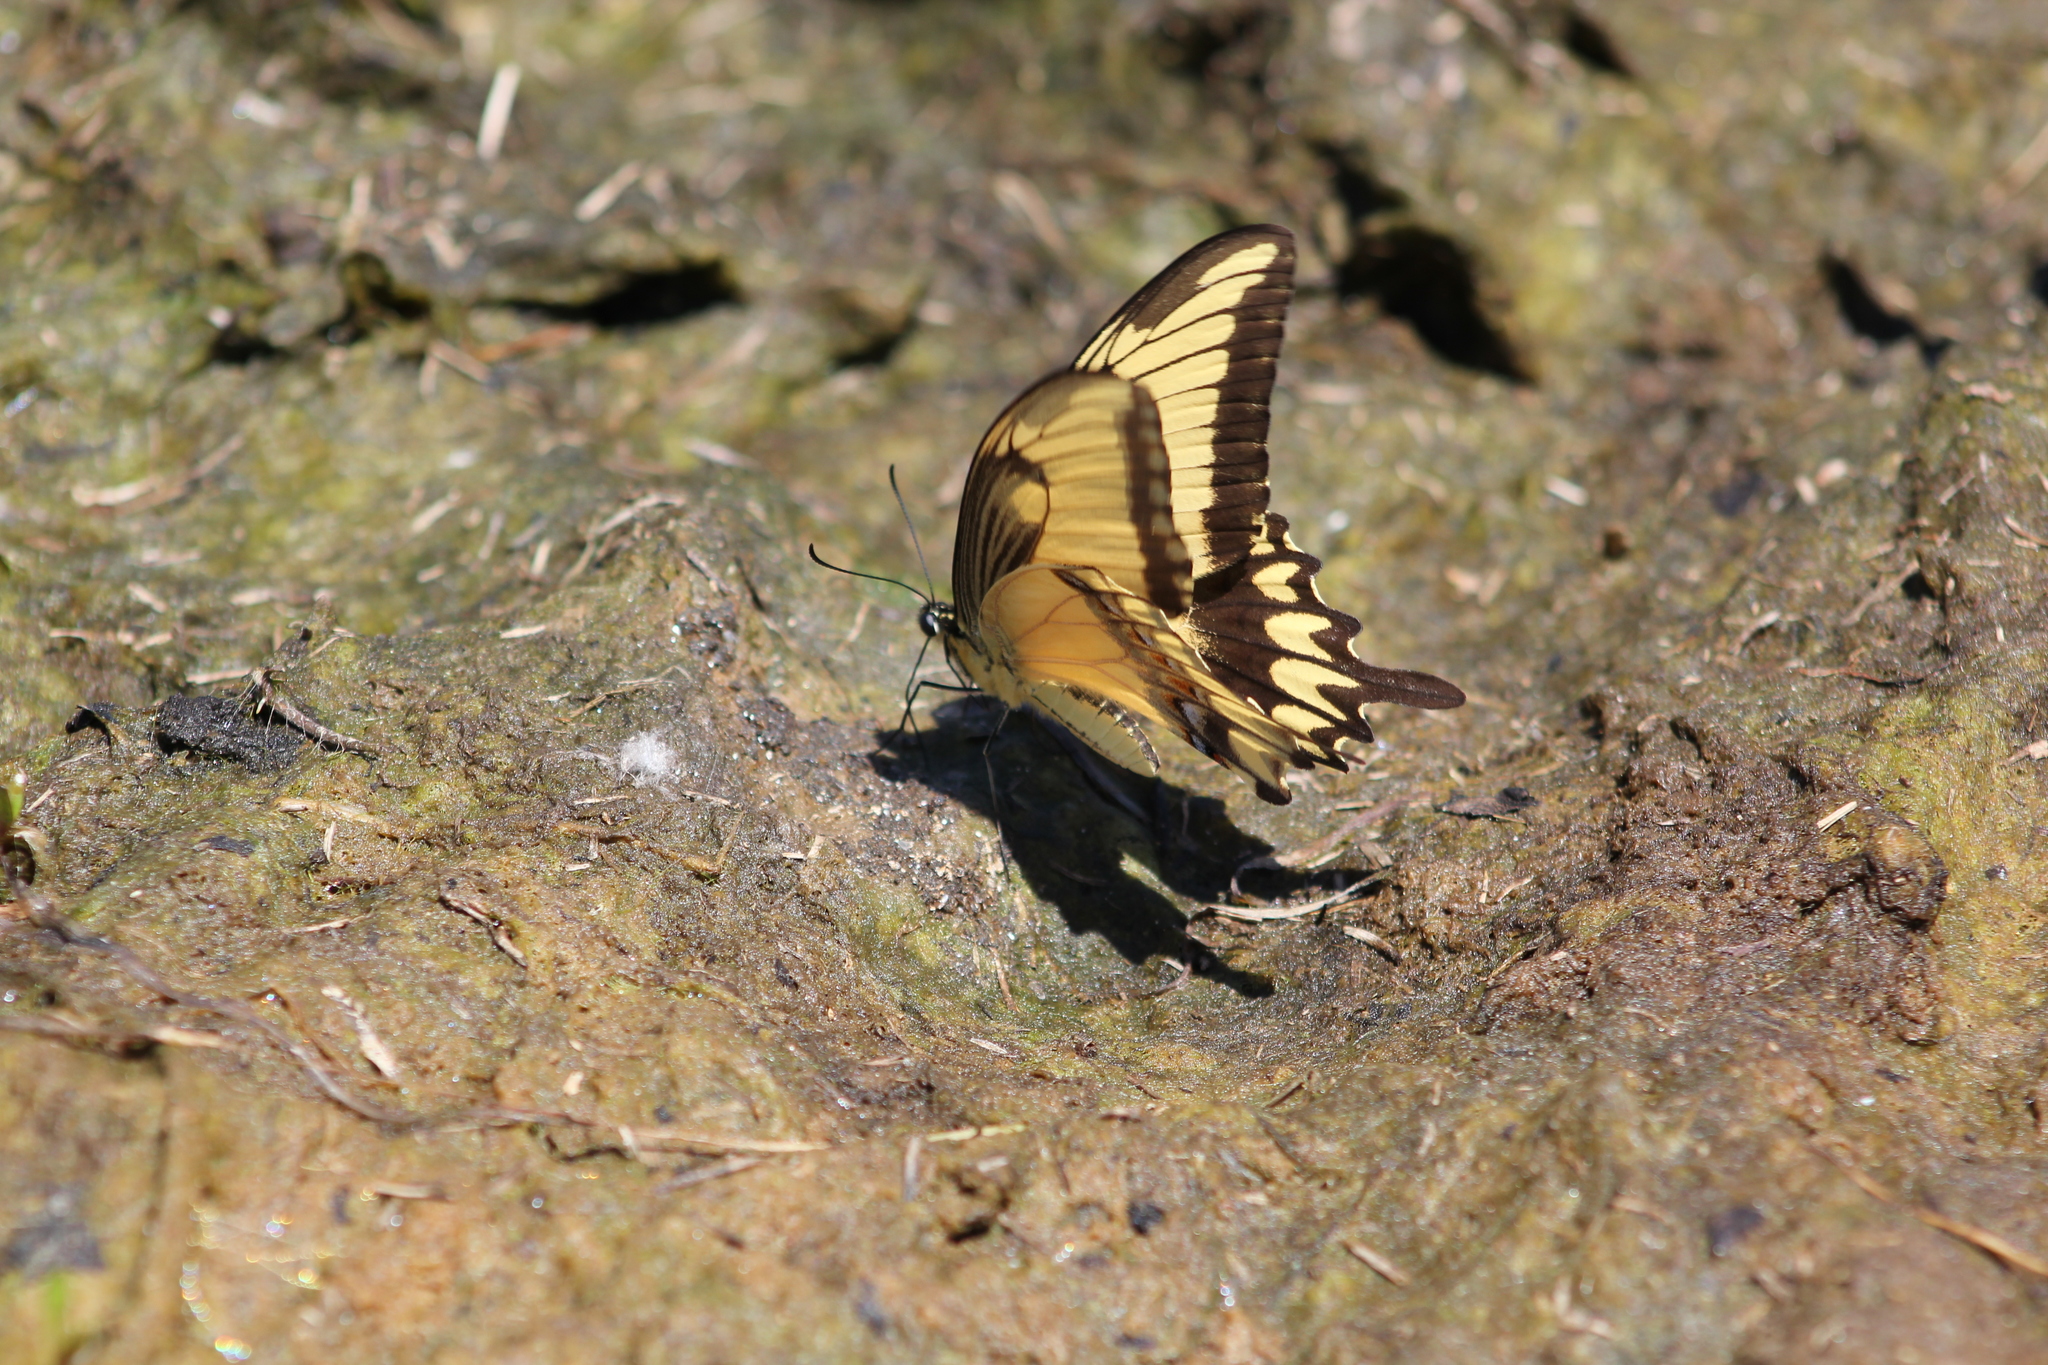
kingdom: Animalia
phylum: Arthropoda
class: Insecta
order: Lepidoptera
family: Papilionidae
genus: Papilio
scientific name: Papilio astyalus
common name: Astyalus swallowtail
